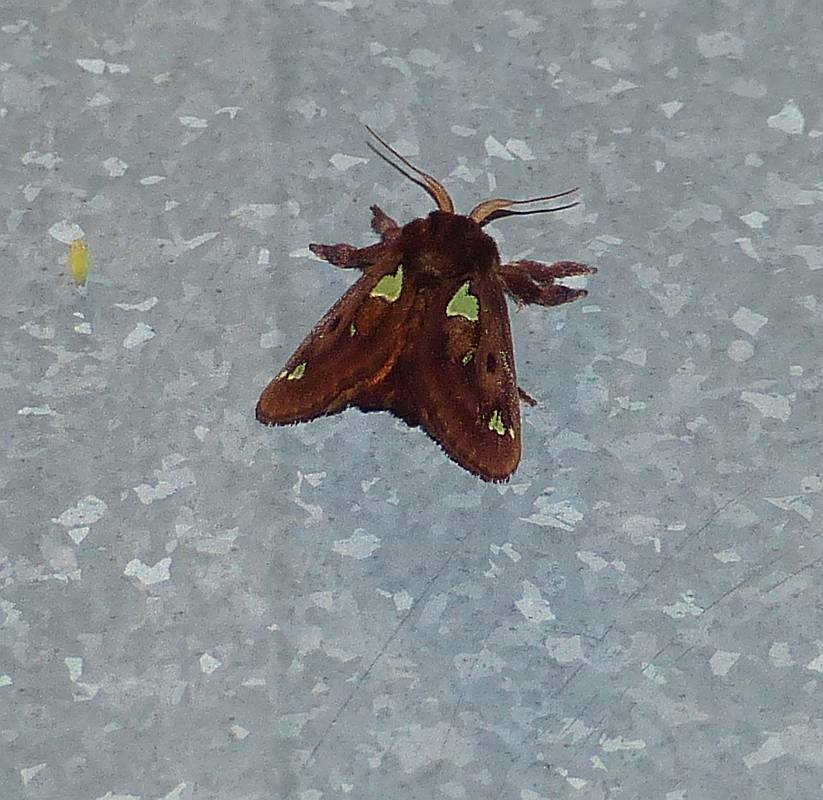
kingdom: Animalia
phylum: Arthropoda
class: Insecta
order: Lepidoptera
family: Limacodidae
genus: Euclea
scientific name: Euclea delphinii
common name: Spiny oak-slug moth
